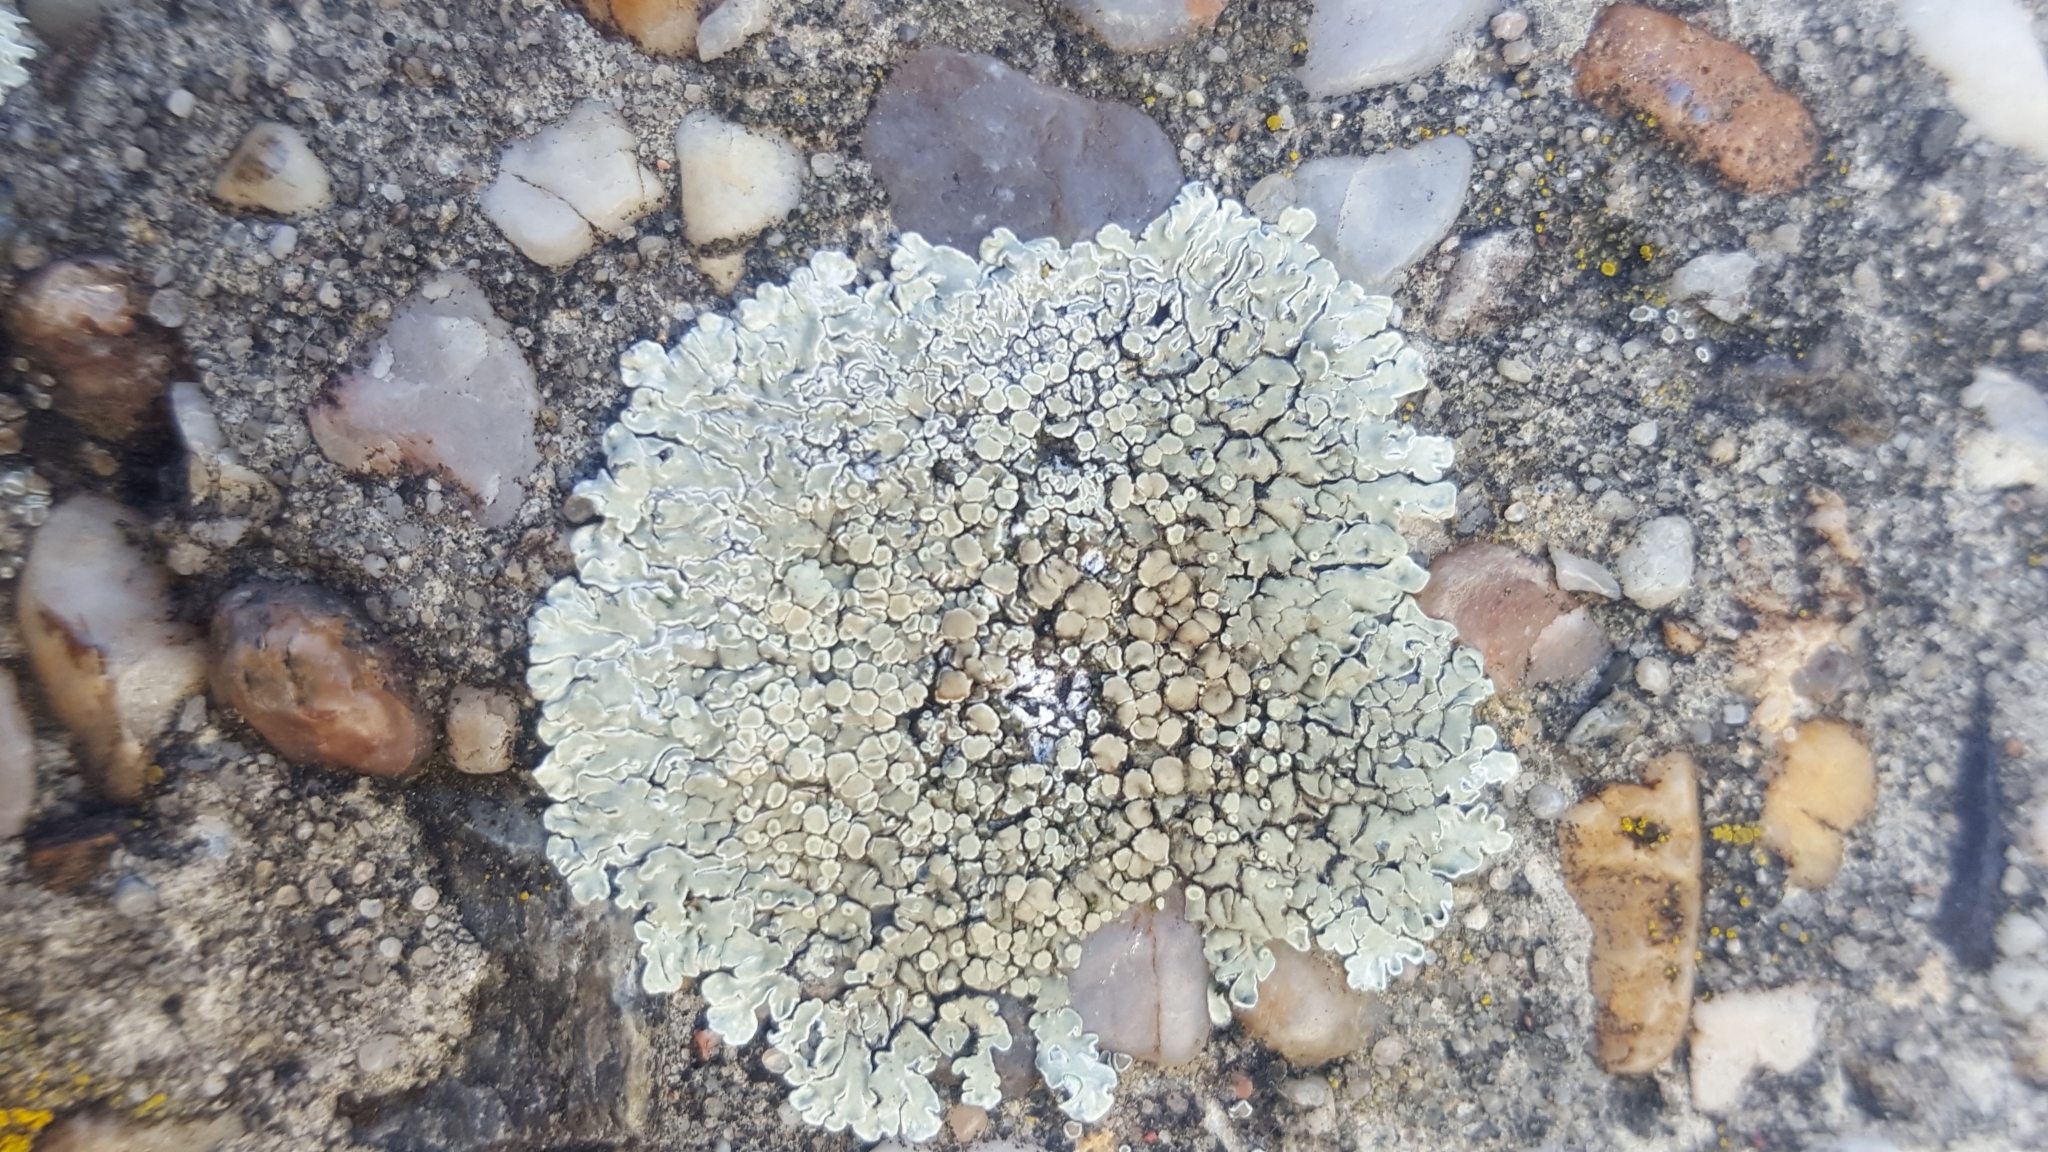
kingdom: Fungi
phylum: Ascomycota
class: Lecanoromycetes
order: Lecanorales
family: Lecanoraceae
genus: Protoparmeliopsis
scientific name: Protoparmeliopsis muralis
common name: Stonewall rim lichen
